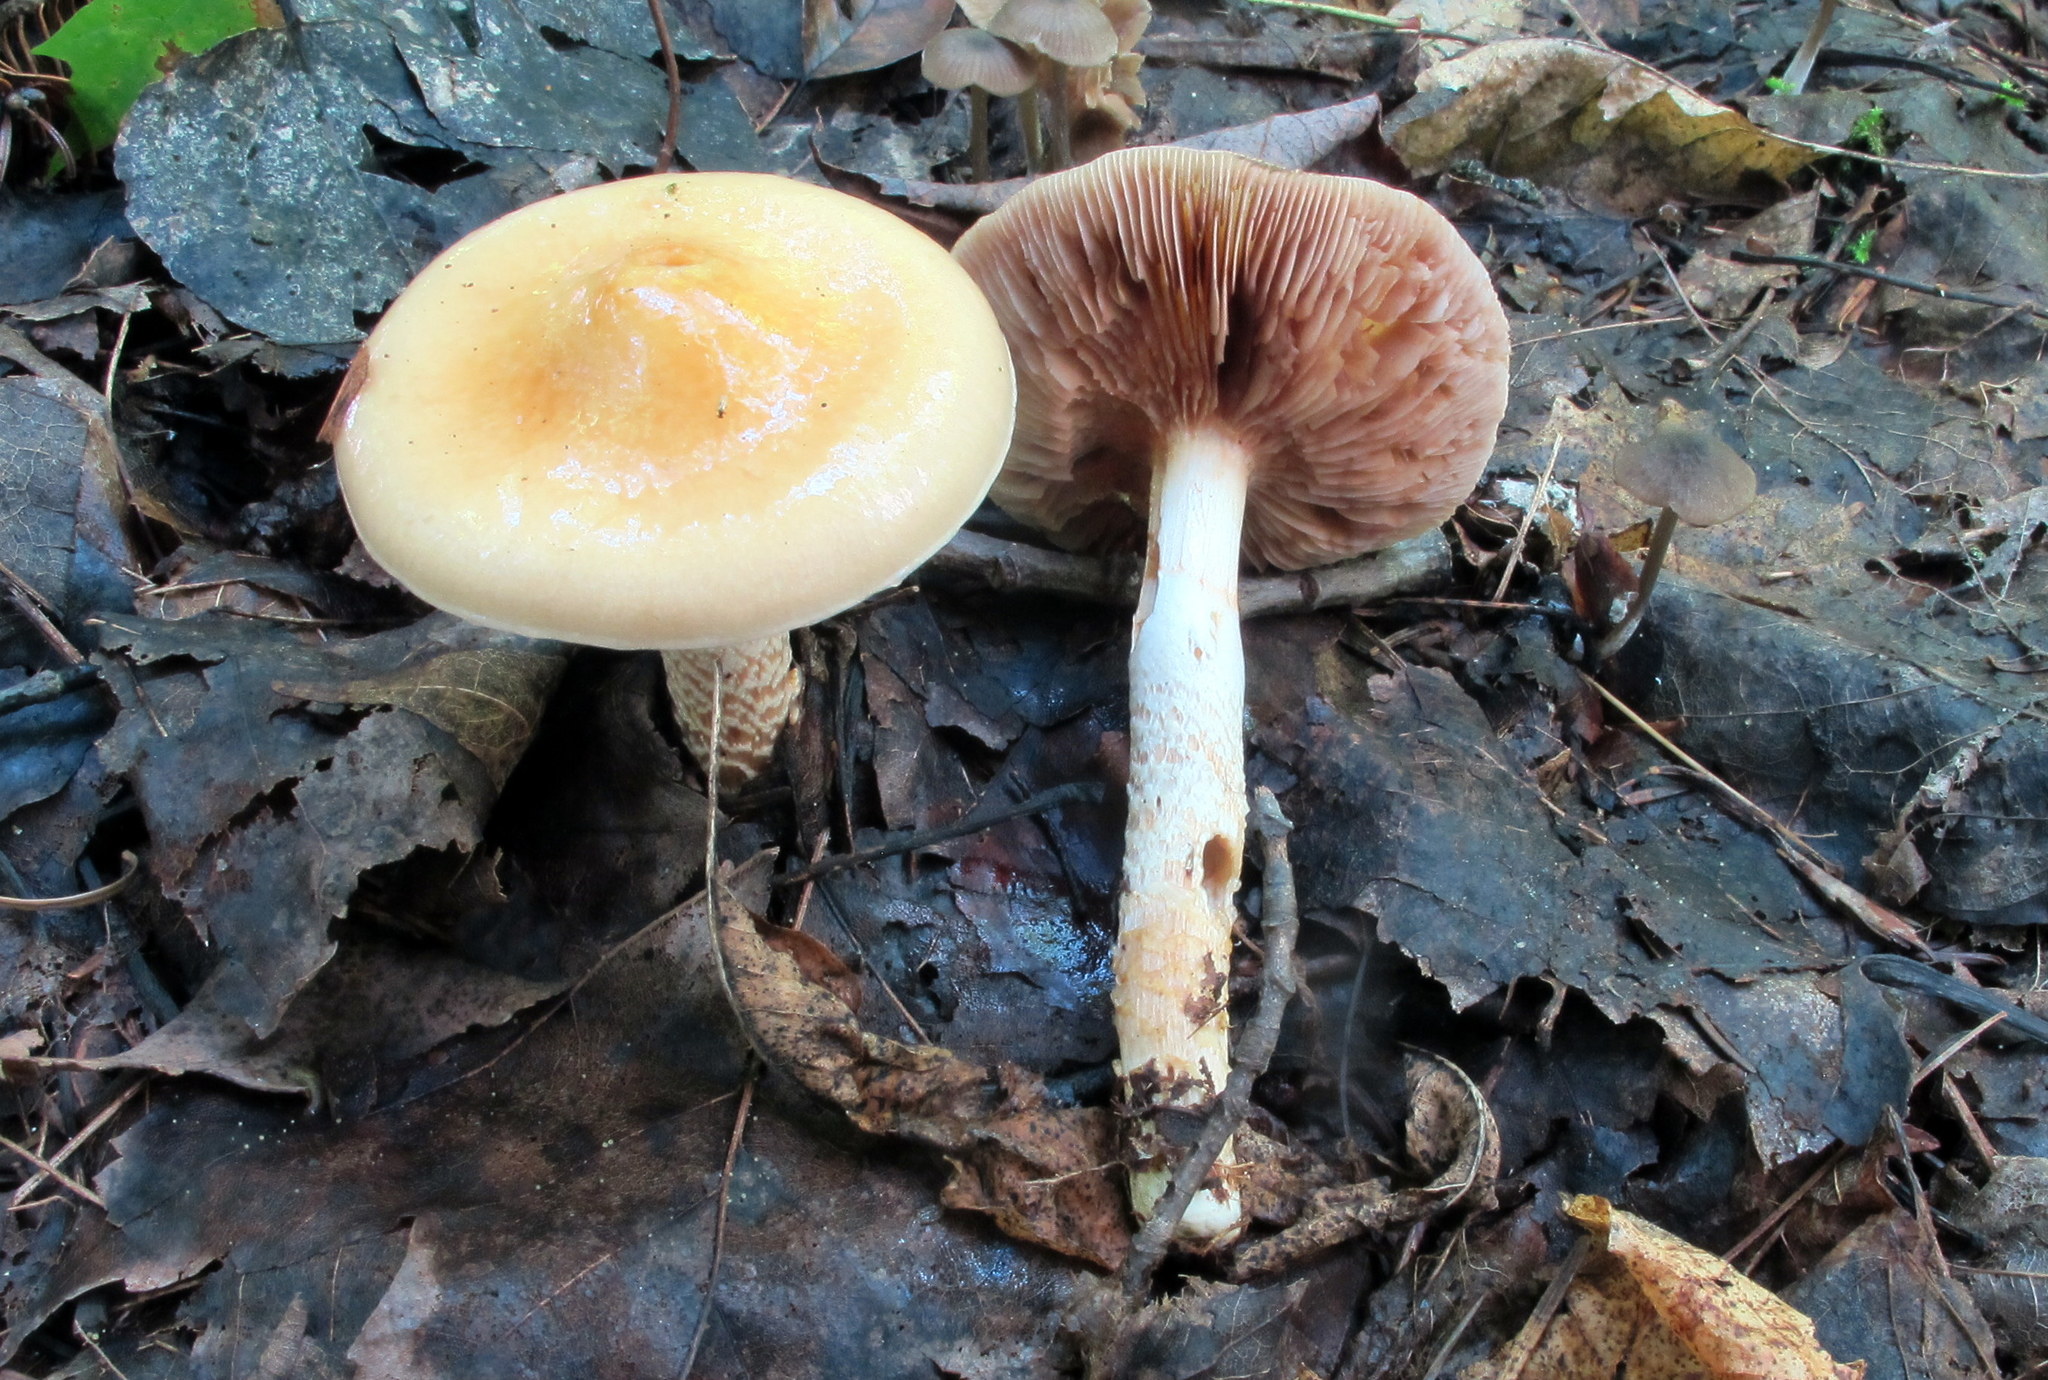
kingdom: Fungi
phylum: Basidiomycota
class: Agaricomycetes
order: Agaricales
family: Cortinariaceae
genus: Cortinarius
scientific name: Cortinarius trivialis
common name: Girdled webcap
